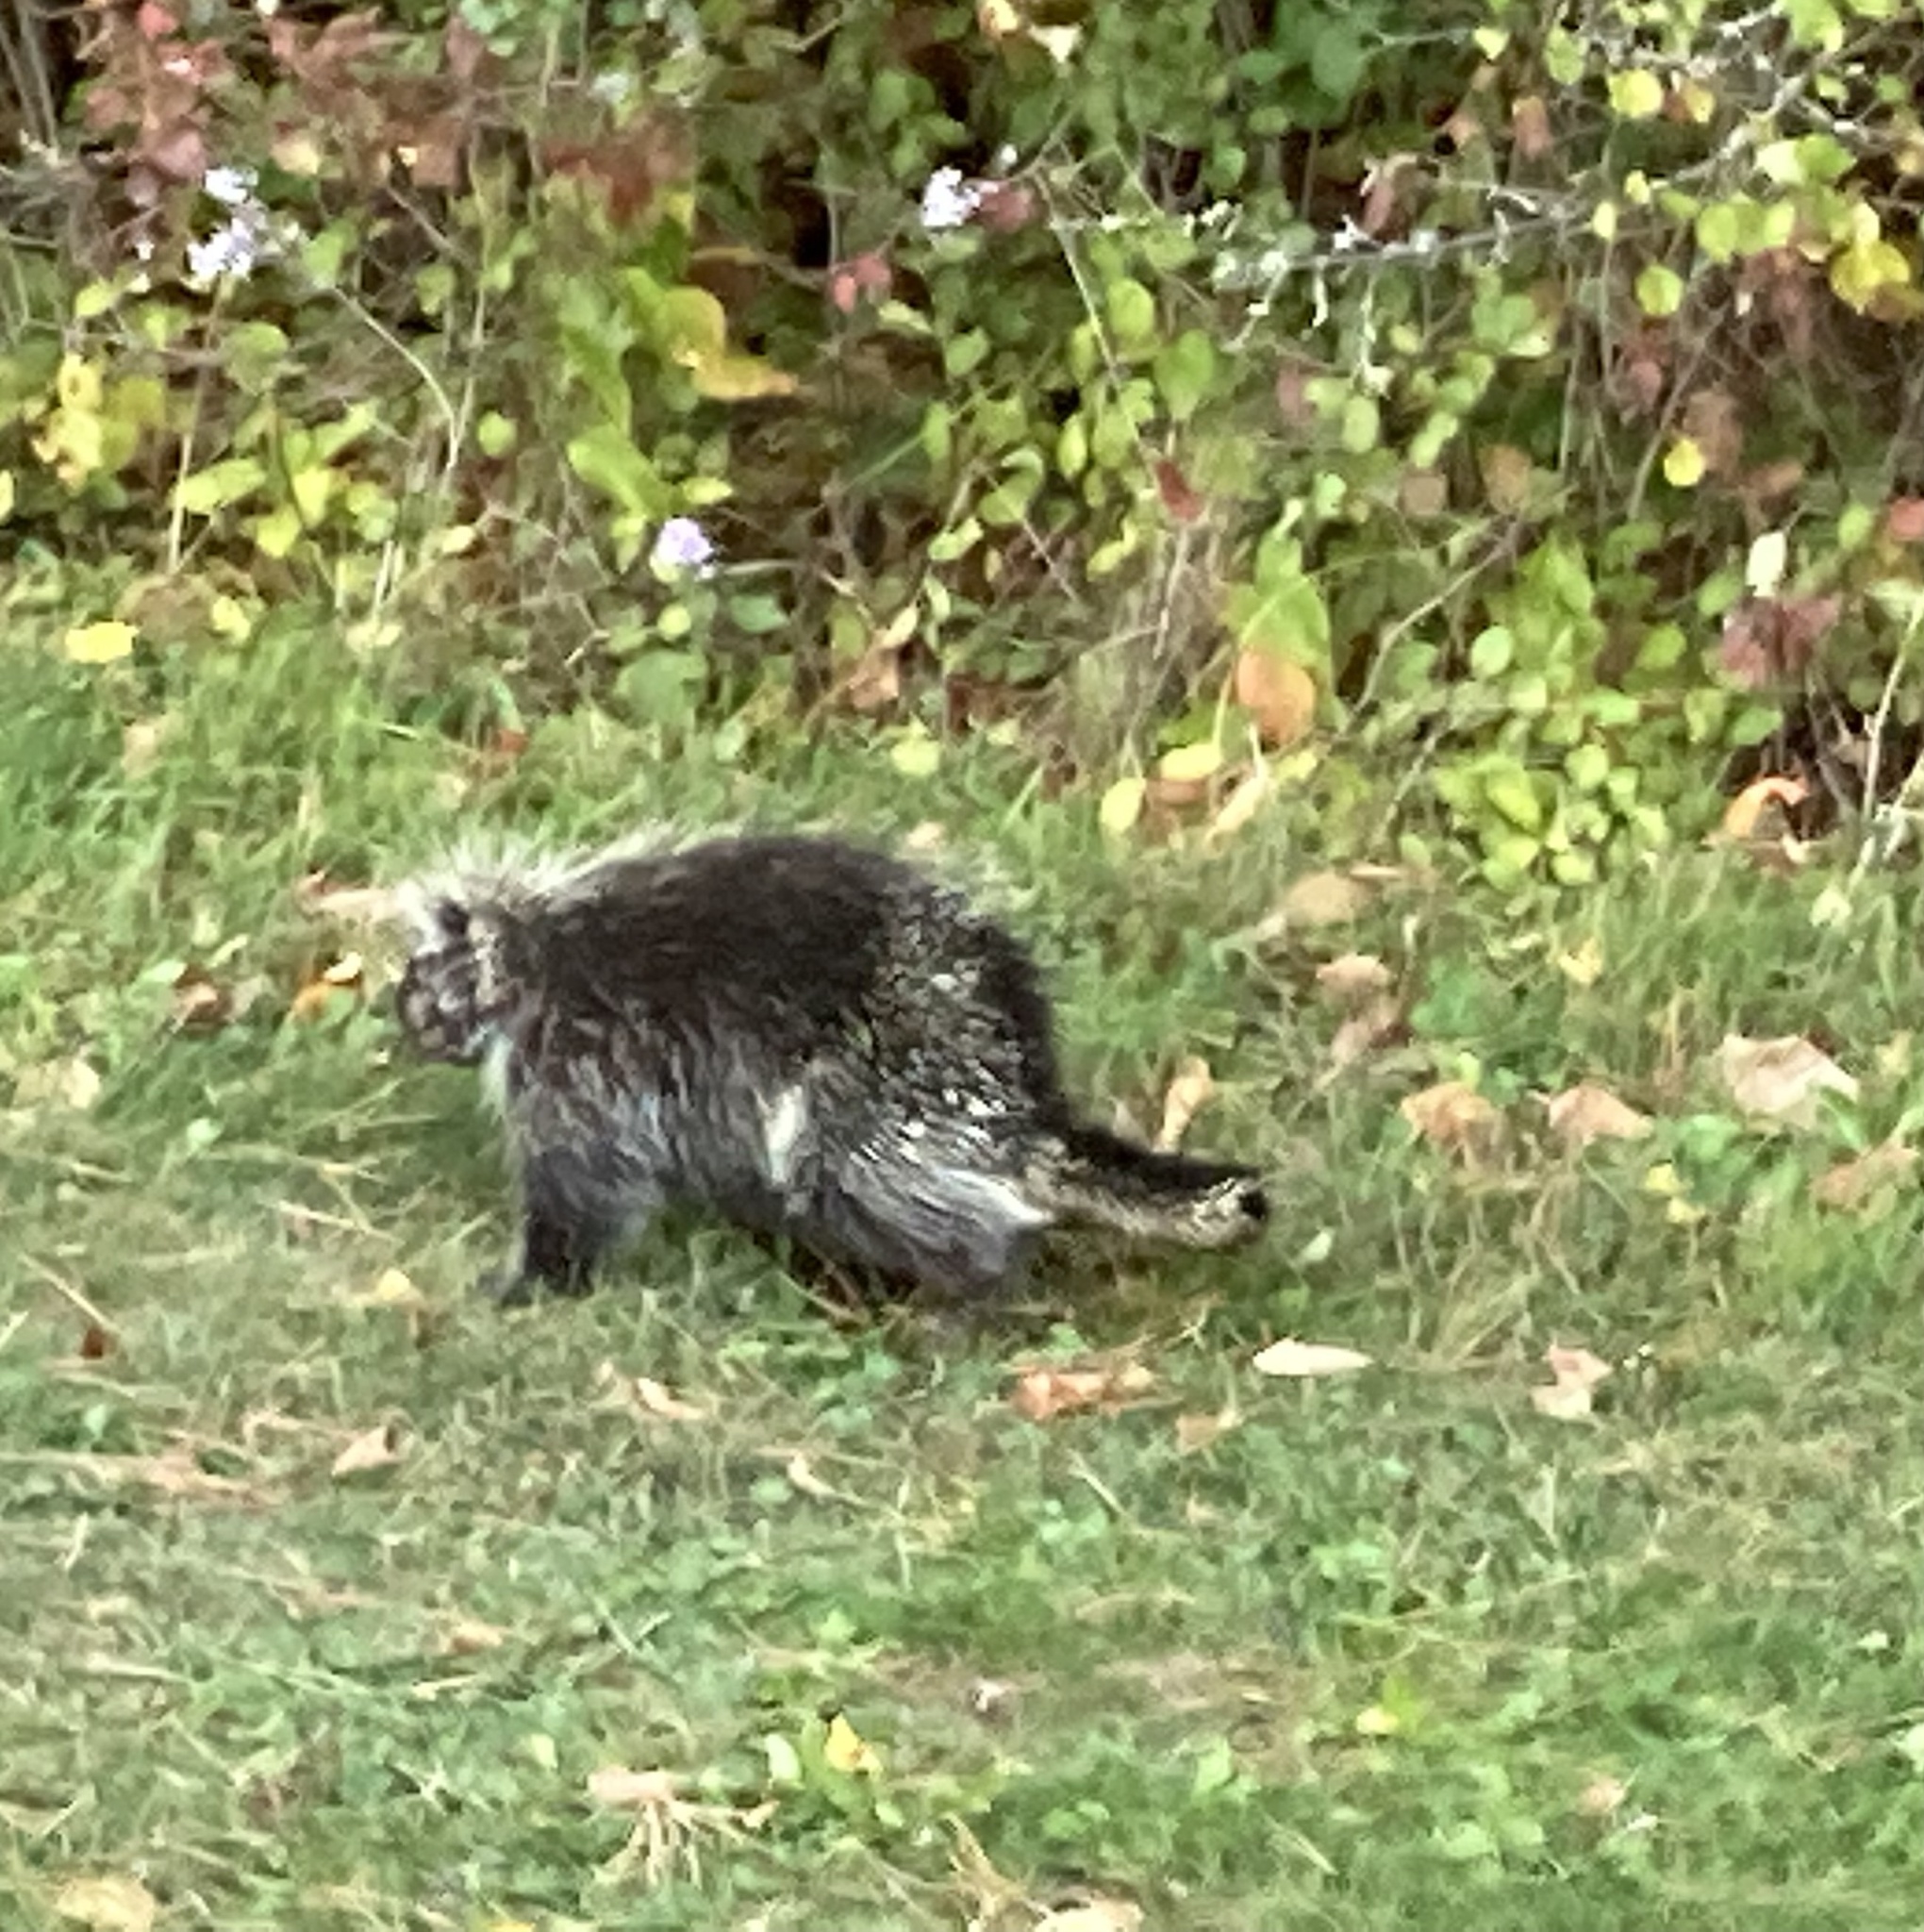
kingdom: Animalia
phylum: Chordata
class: Mammalia
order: Rodentia
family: Erethizontidae
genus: Erethizon
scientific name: Erethizon dorsatus
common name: North american porcupine
